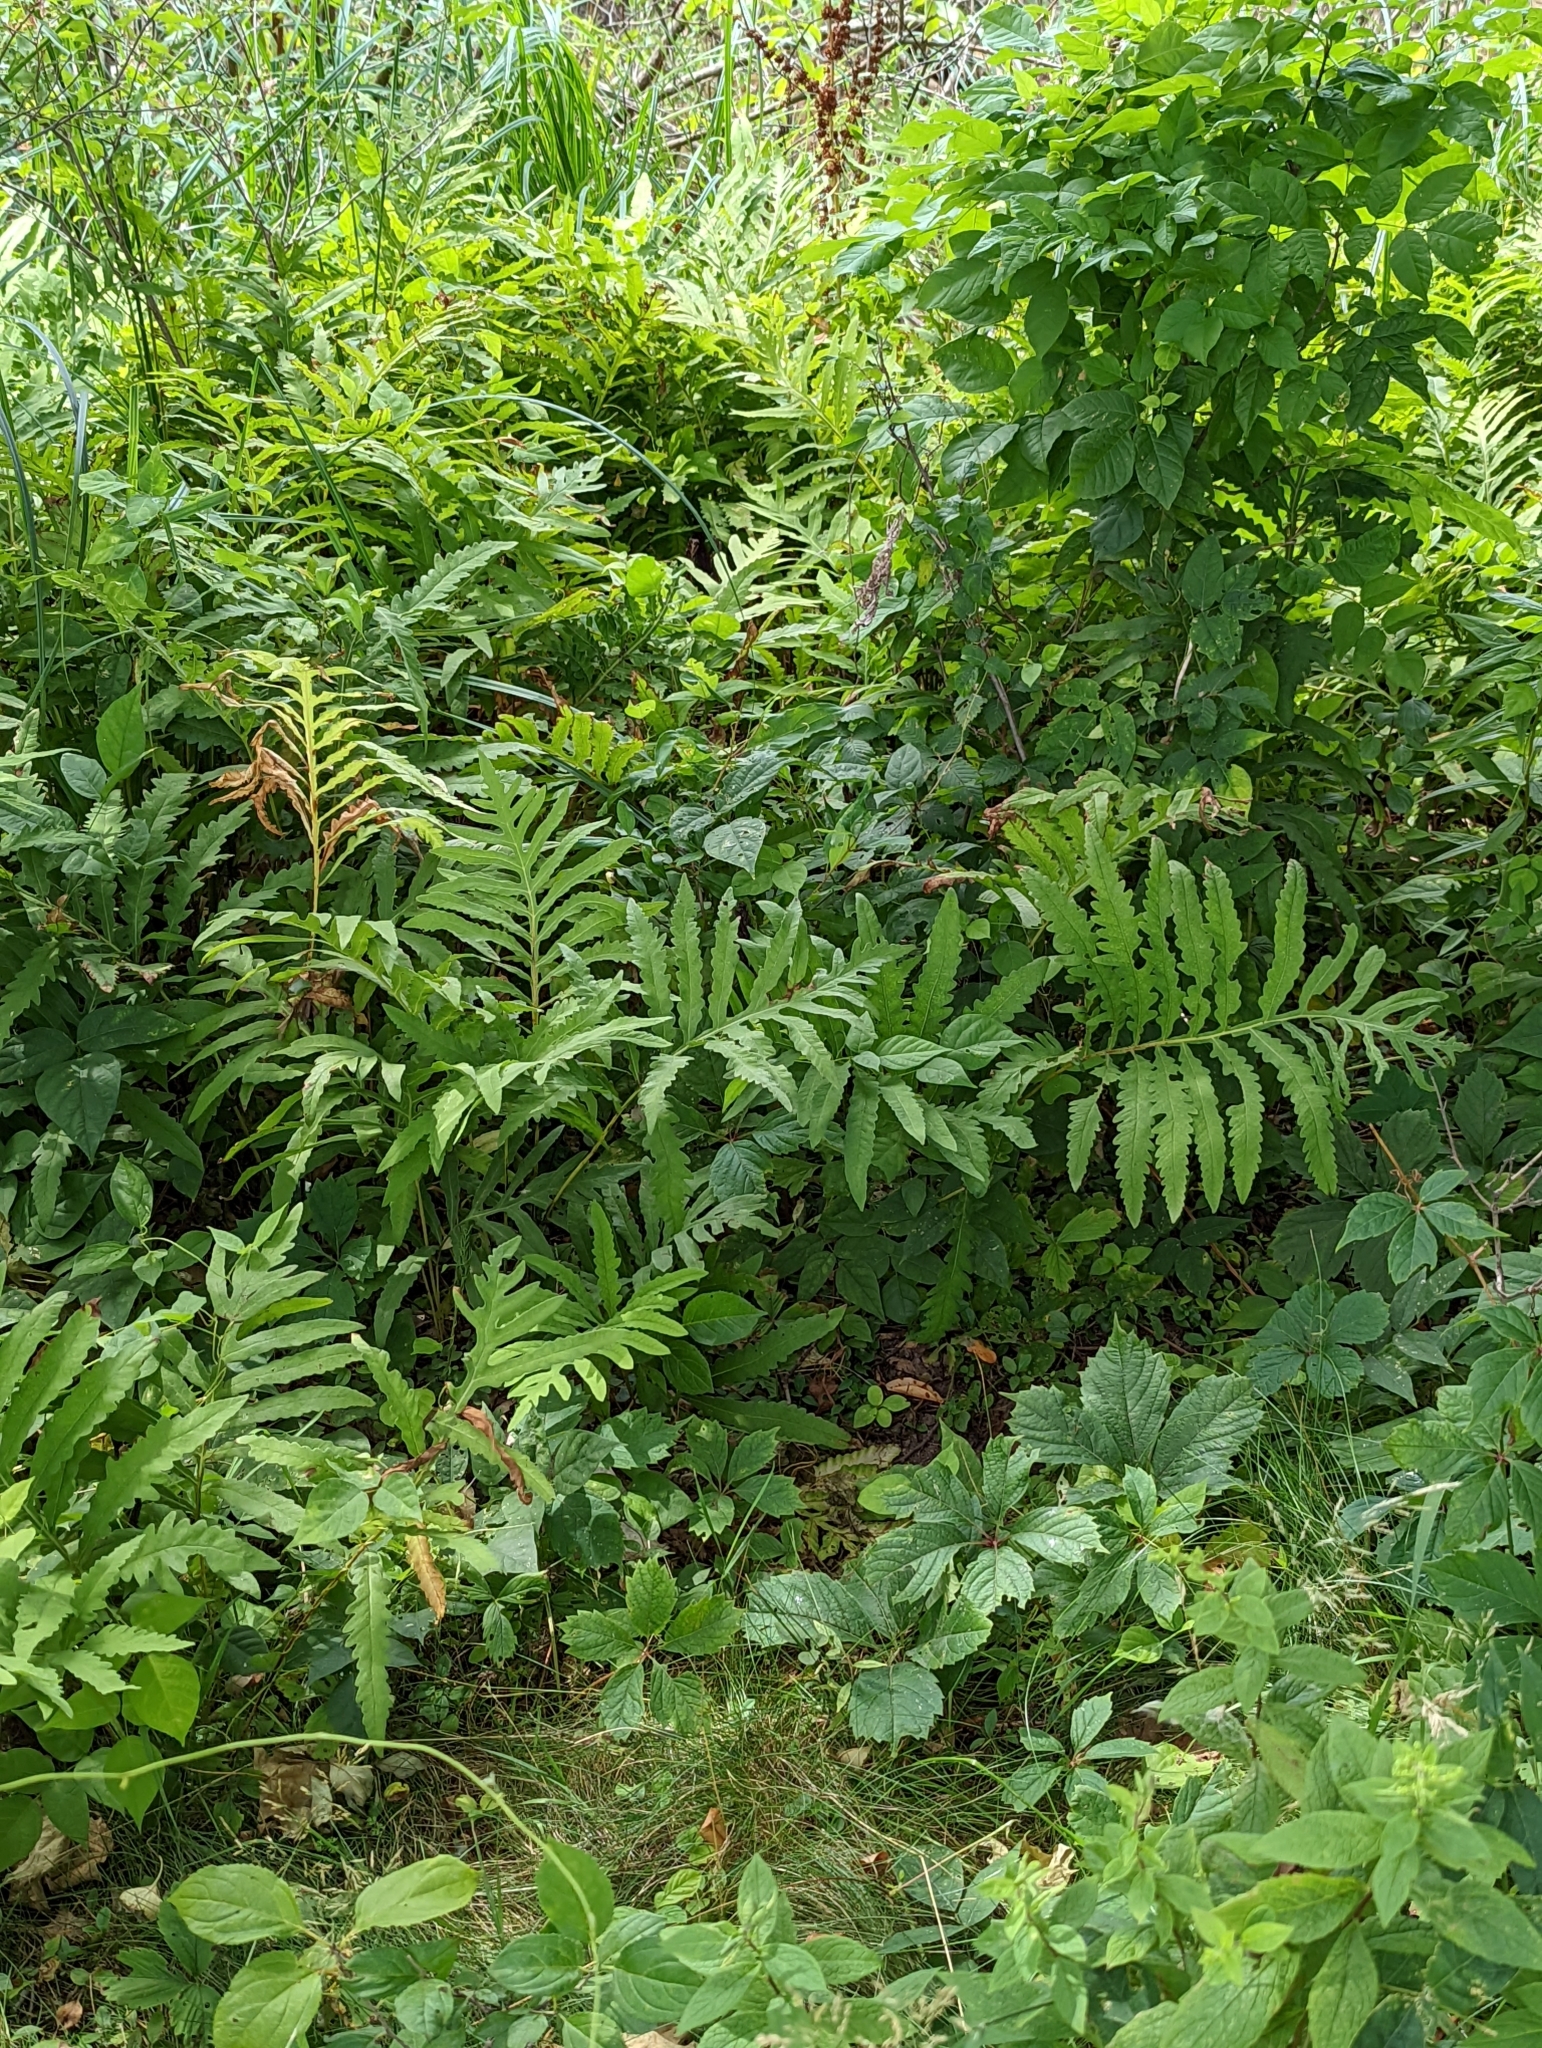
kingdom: Plantae
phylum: Tracheophyta
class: Polypodiopsida
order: Polypodiales
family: Onocleaceae
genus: Onoclea
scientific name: Onoclea sensibilis
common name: Sensitive fern
